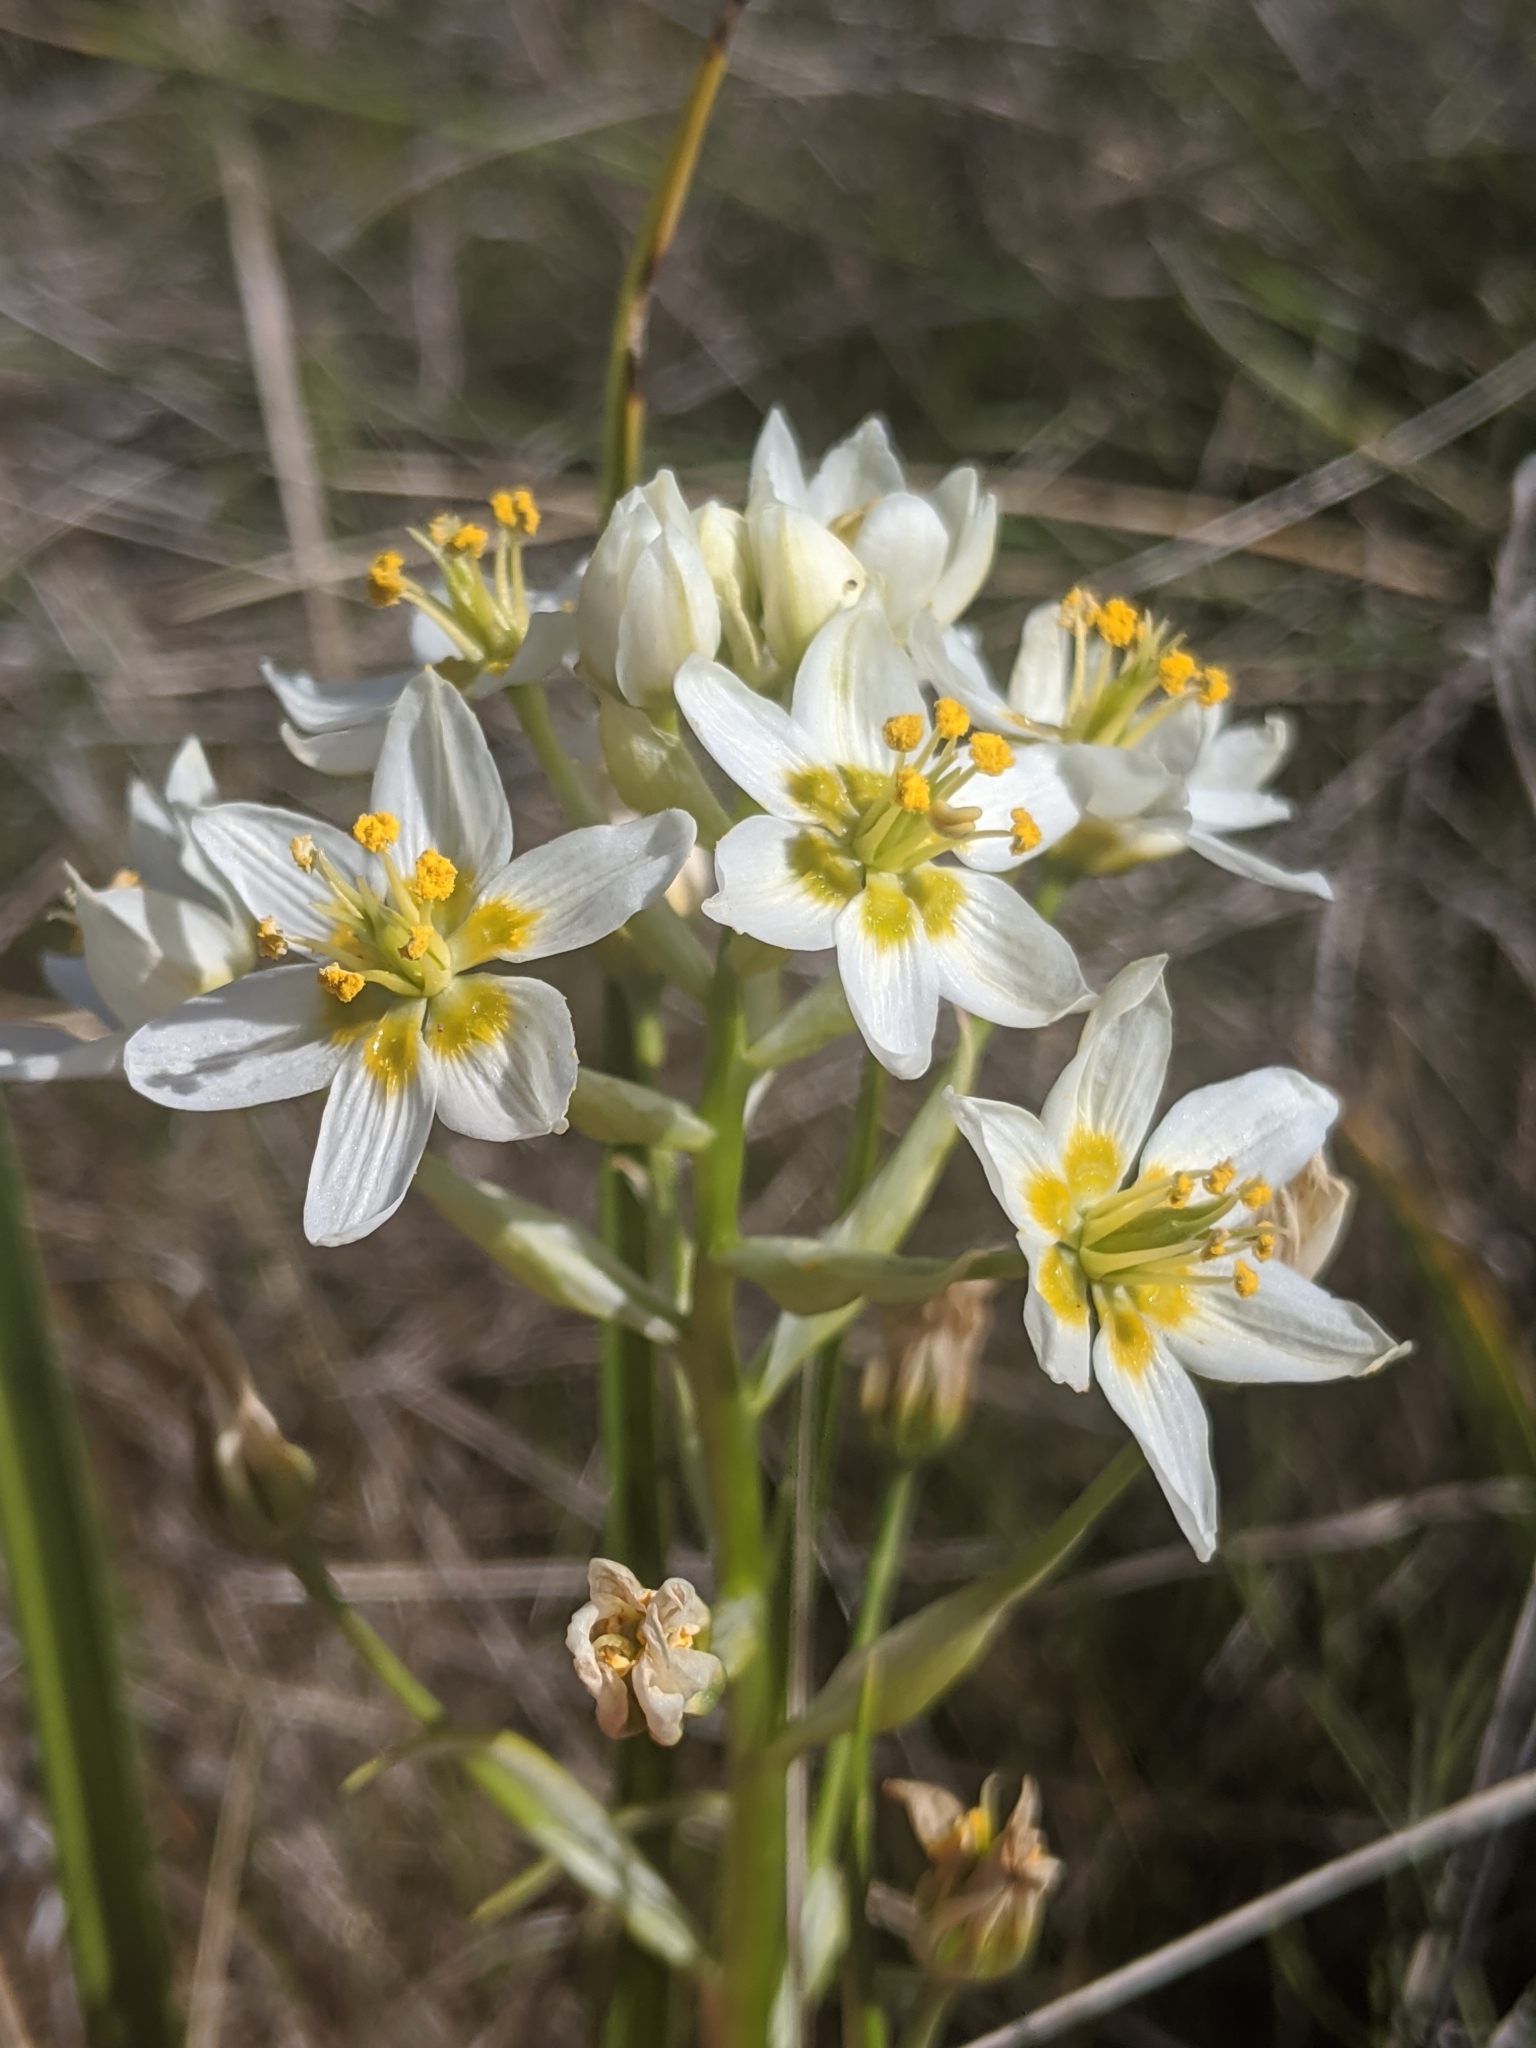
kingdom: Plantae
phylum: Tracheophyta
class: Liliopsida
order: Liliales
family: Melanthiaceae
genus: Toxicoscordion
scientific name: Toxicoscordion fremontii
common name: Fremont's death camas
